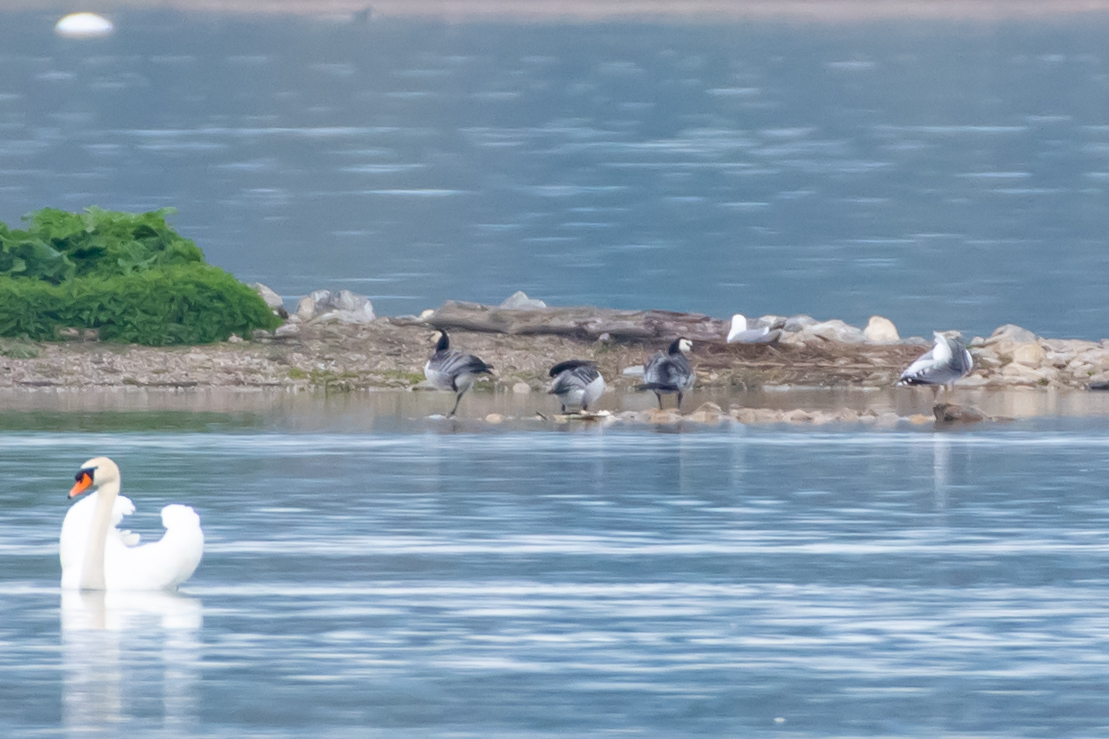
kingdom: Animalia
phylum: Chordata
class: Aves
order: Anseriformes
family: Anatidae
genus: Branta
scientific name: Branta leucopsis
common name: Barnacle goose
